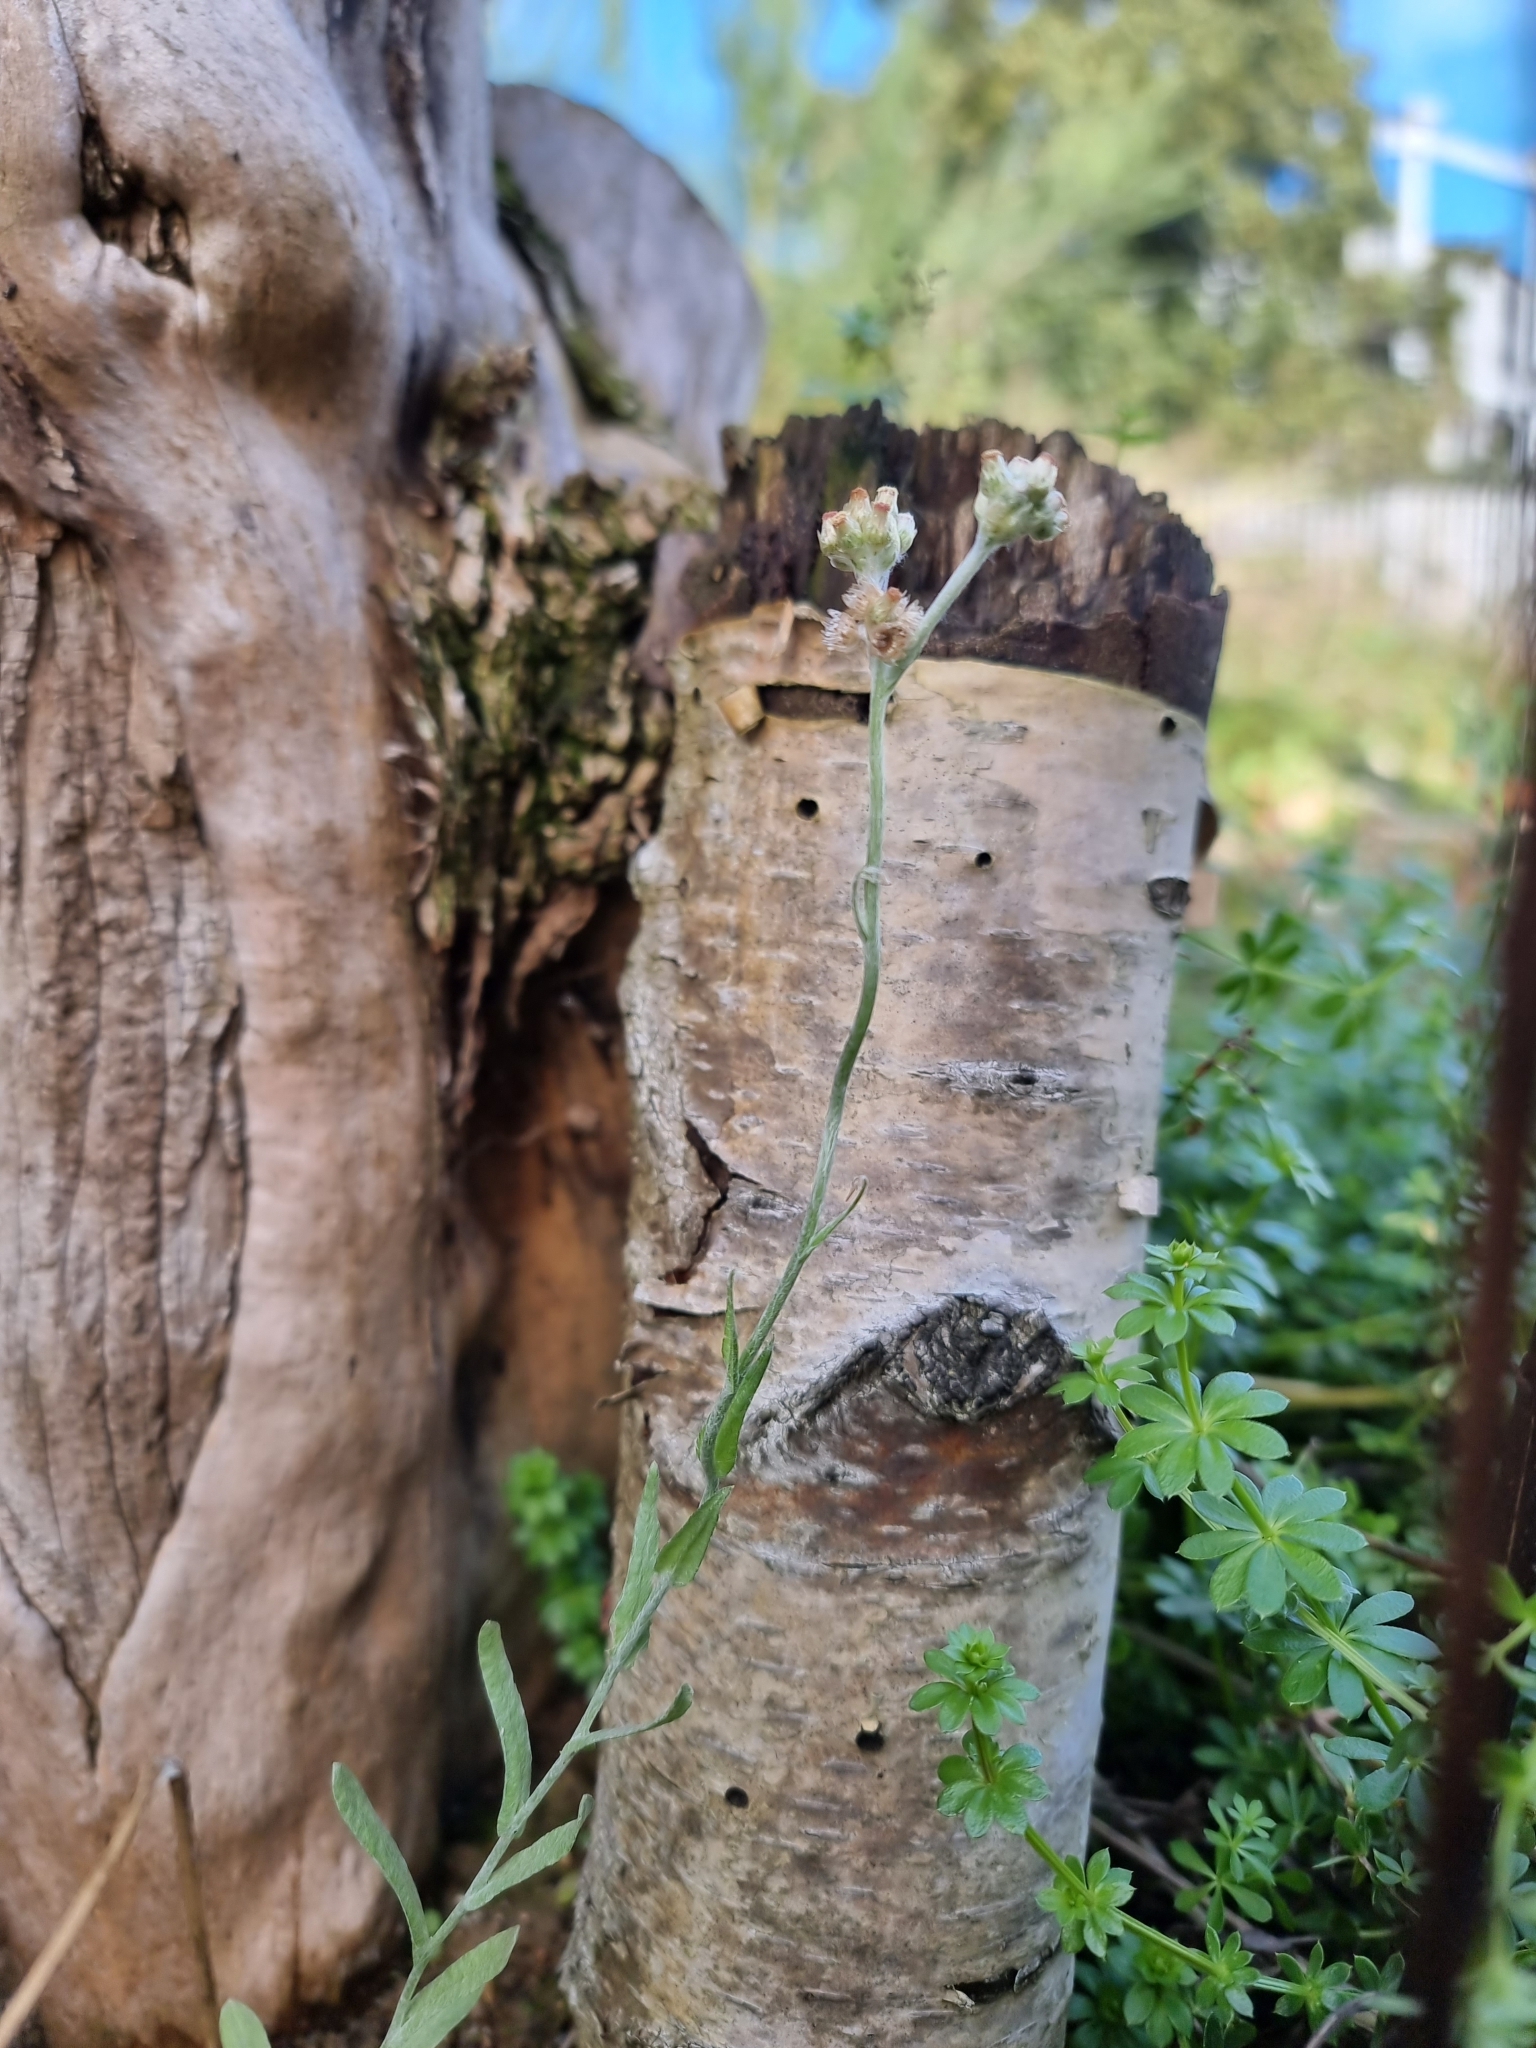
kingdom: Plantae
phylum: Tracheophyta
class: Magnoliopsida
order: Asterales
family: Asteraceae
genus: Helichrysum
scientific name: Helichrysum luteoalbum
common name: Daisy
